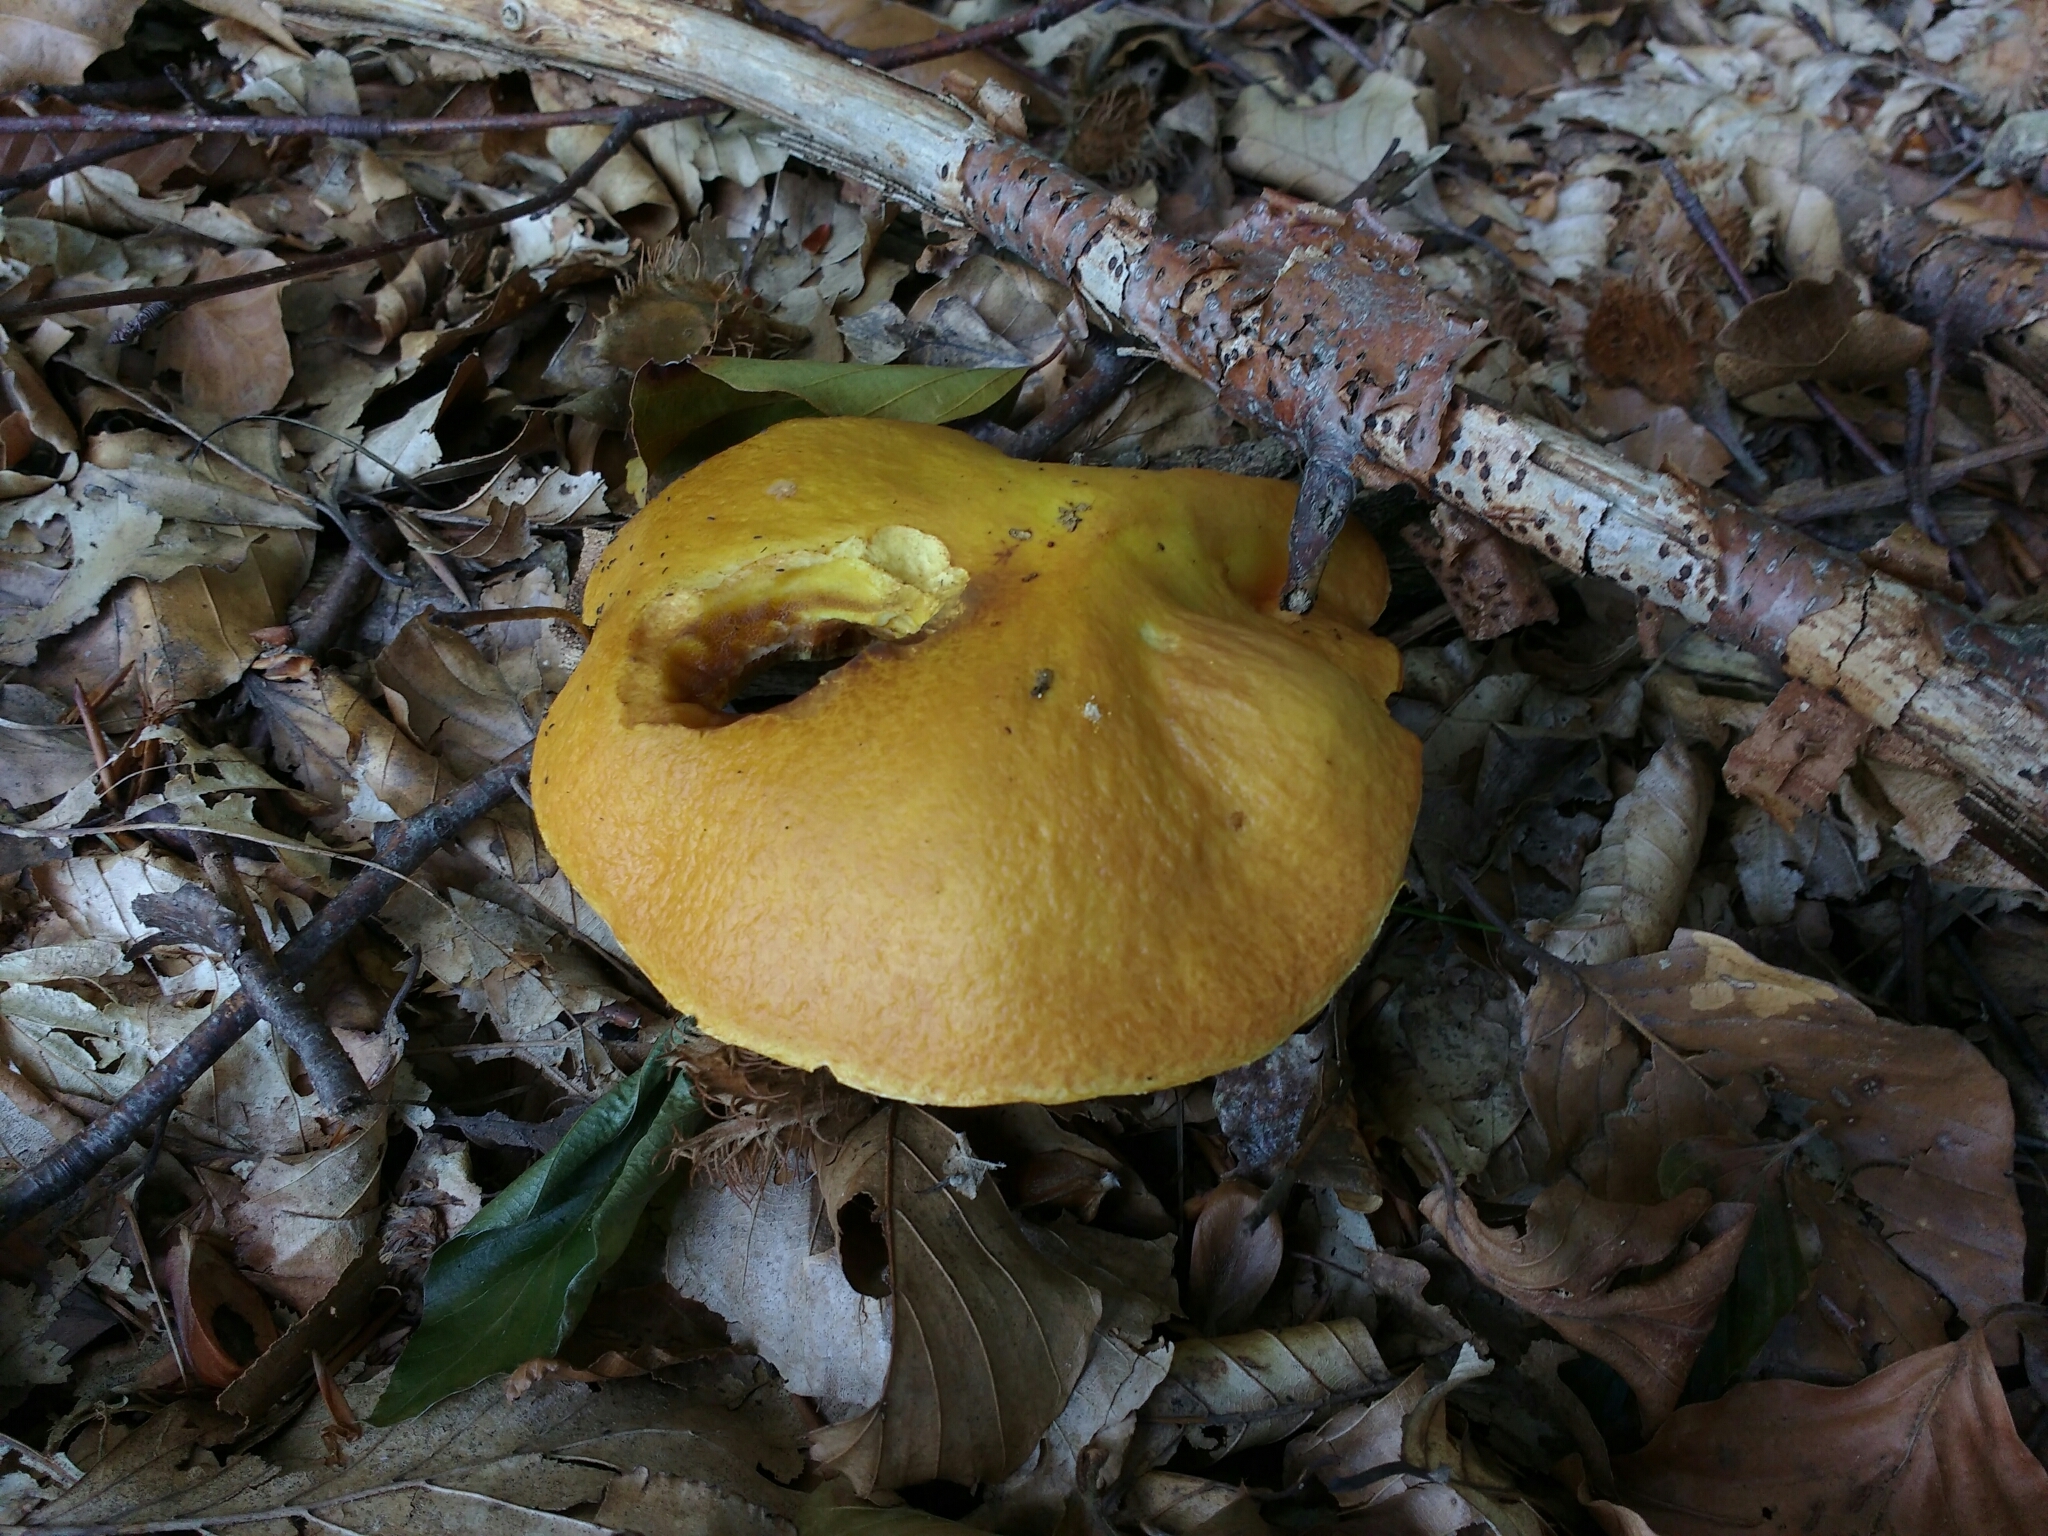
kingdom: Fungi
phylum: Basidiomycota
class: Agaricomycetes
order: Boletales
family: Suillaceae
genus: Suillus
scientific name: Suillus grevillei
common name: Larch bolete
